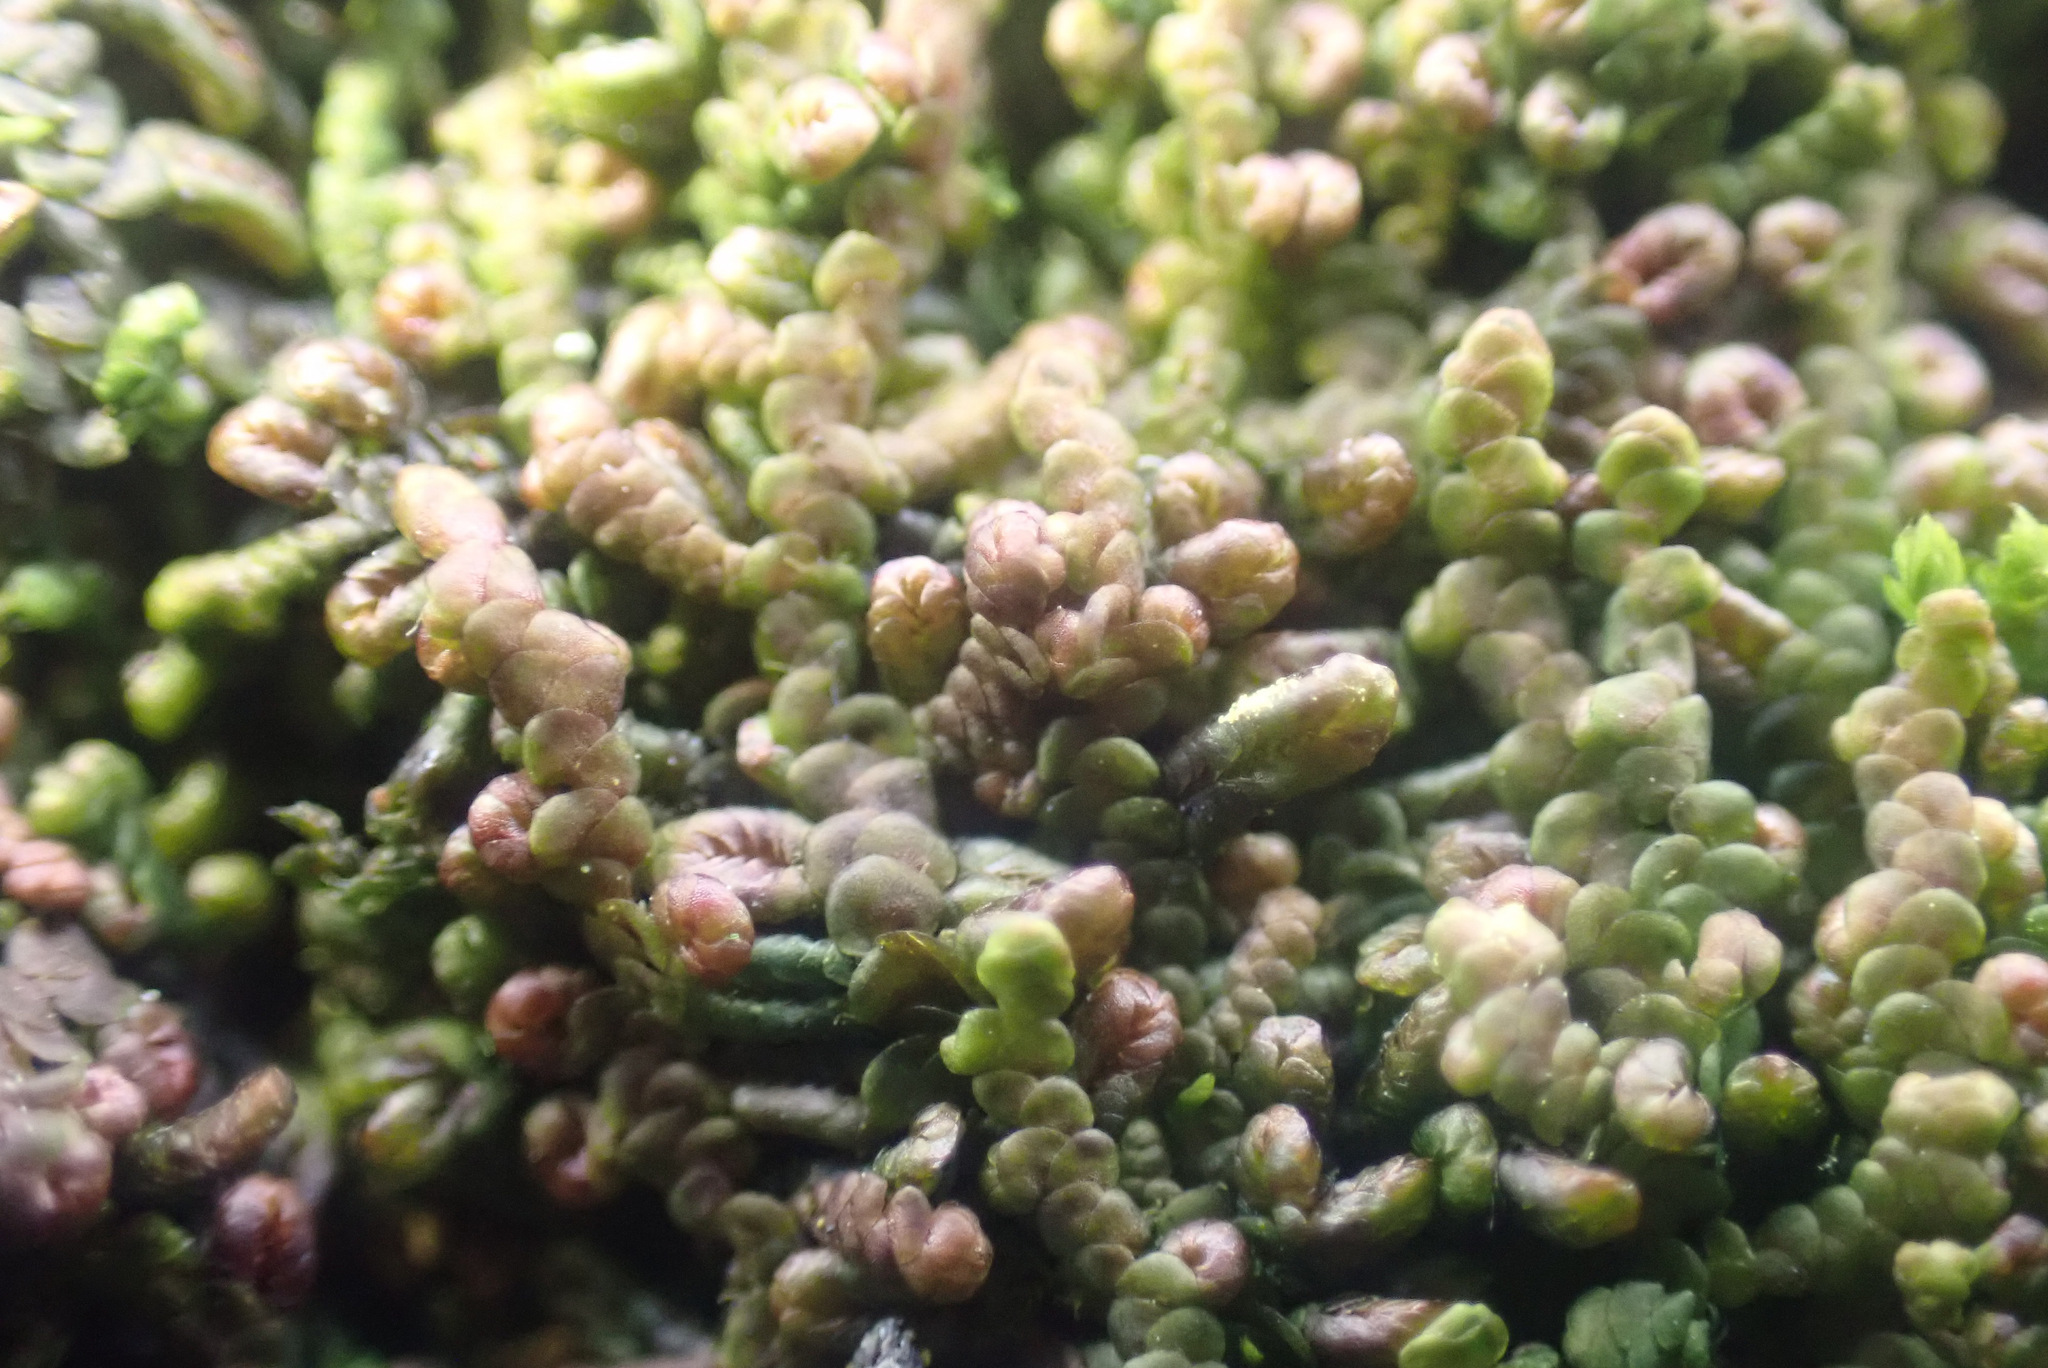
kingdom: Plantae
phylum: Marchantiophyta
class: Jungermanniopsida
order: Porellales
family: Frullaniaceae
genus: Frullania
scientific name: Frullania dilatata
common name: Dilated scalewort
